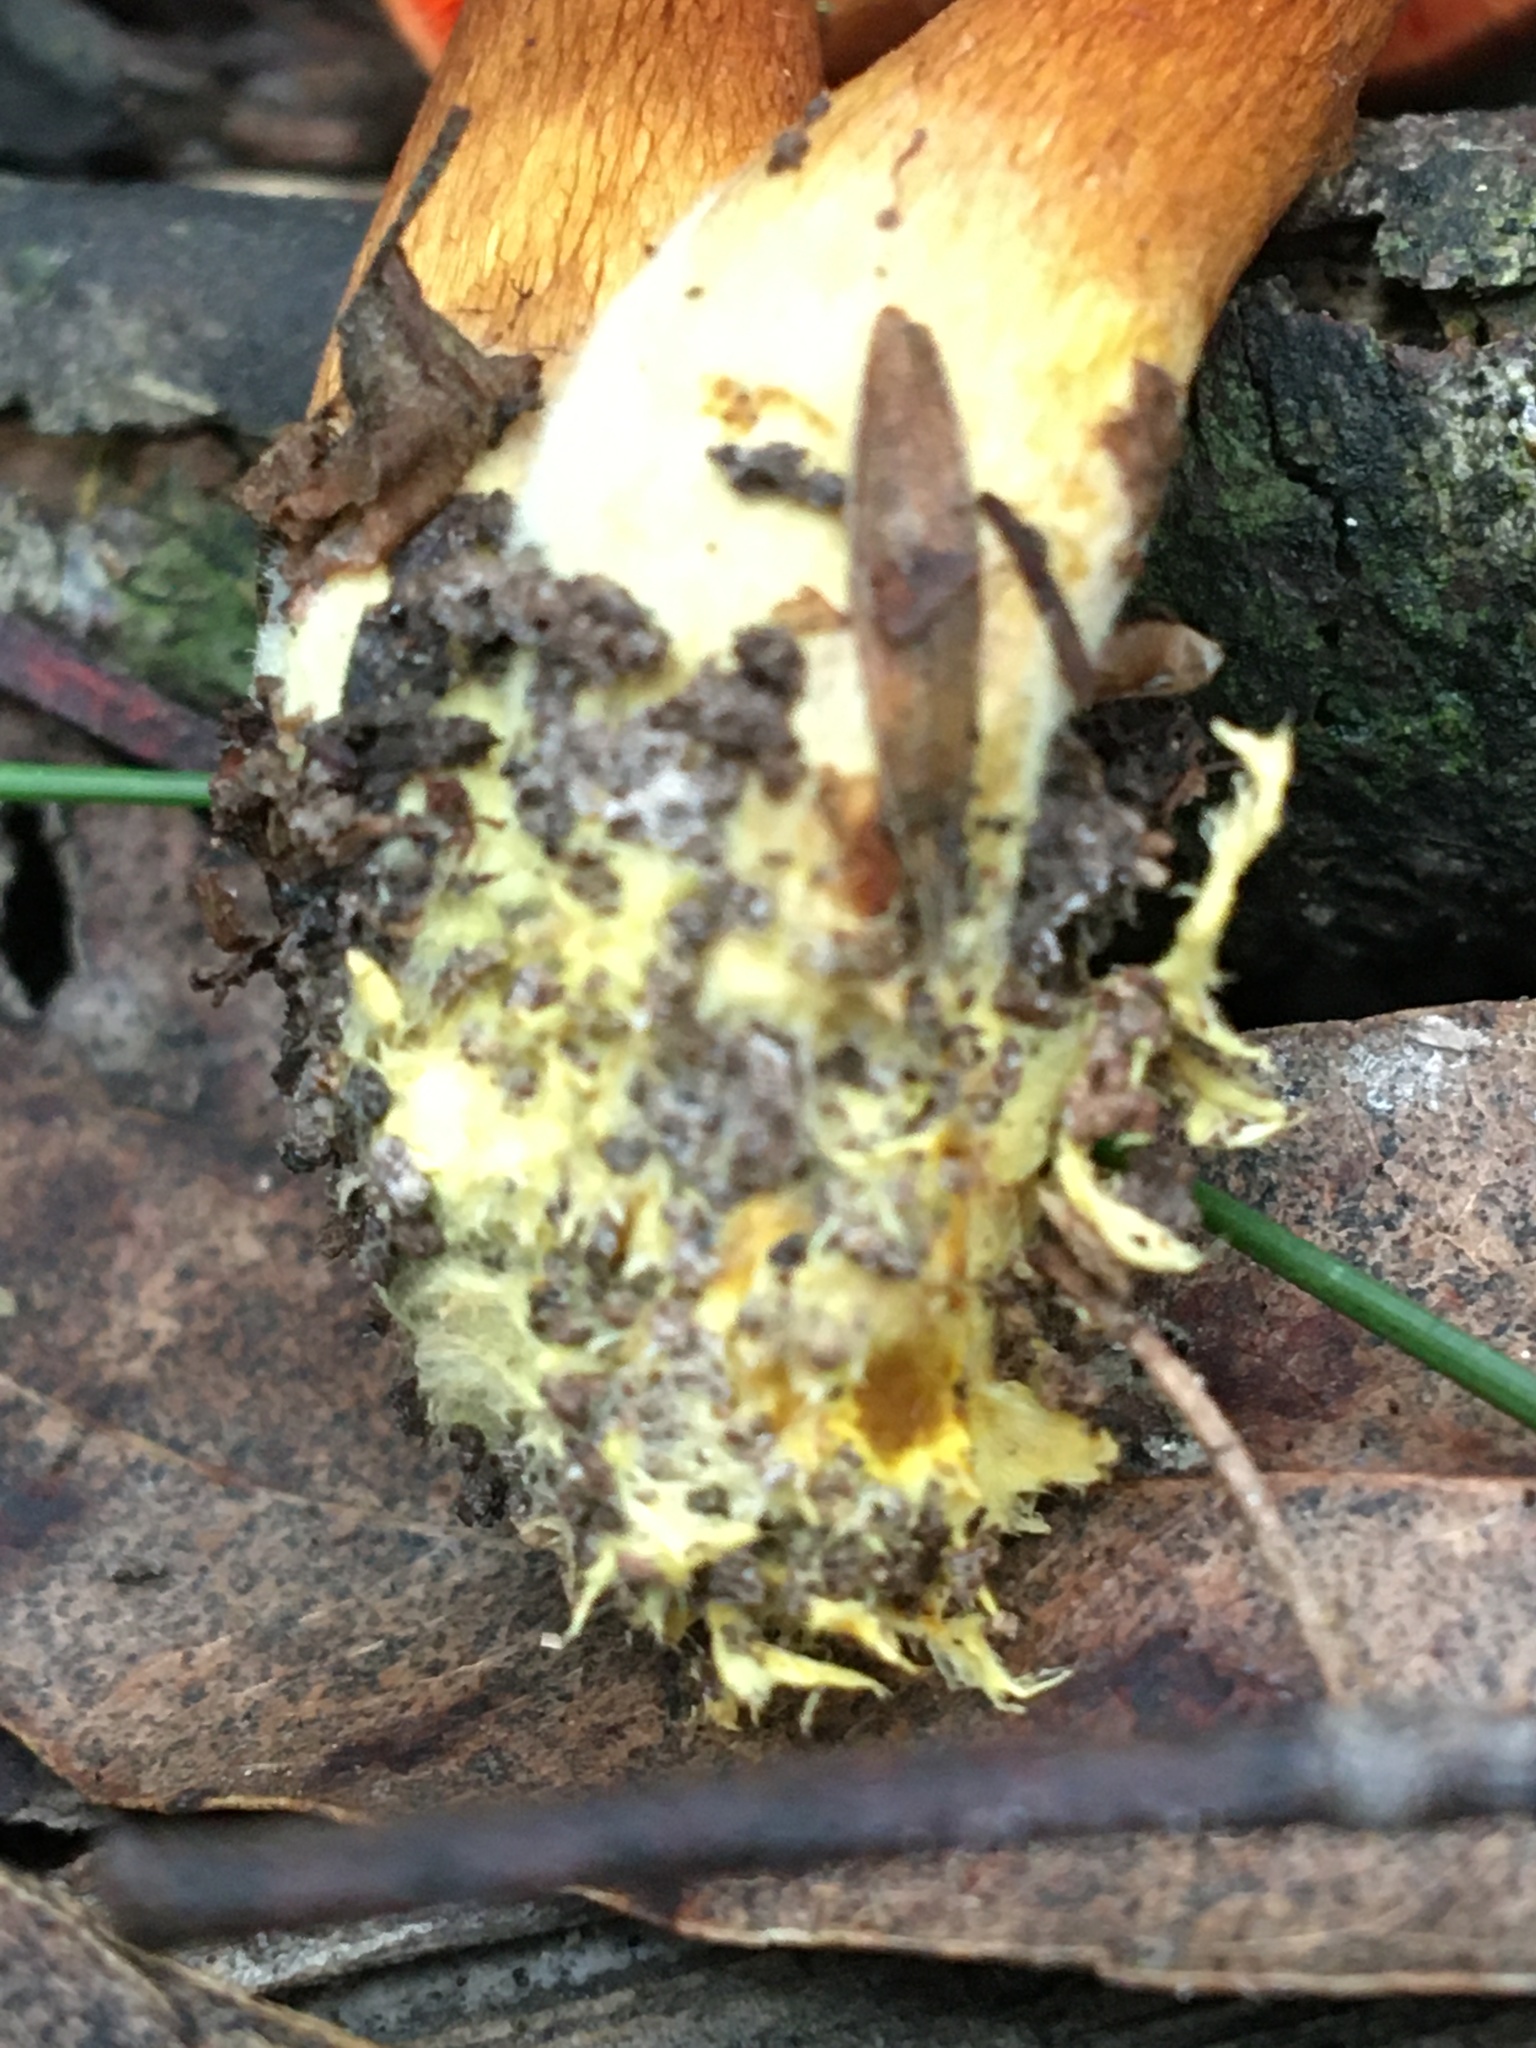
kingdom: Fungi
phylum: Basidiomycota
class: Agaricomycetes
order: Agaricales
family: Cortinariaceae
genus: Cortinarius
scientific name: Cortinarius persplendidus
